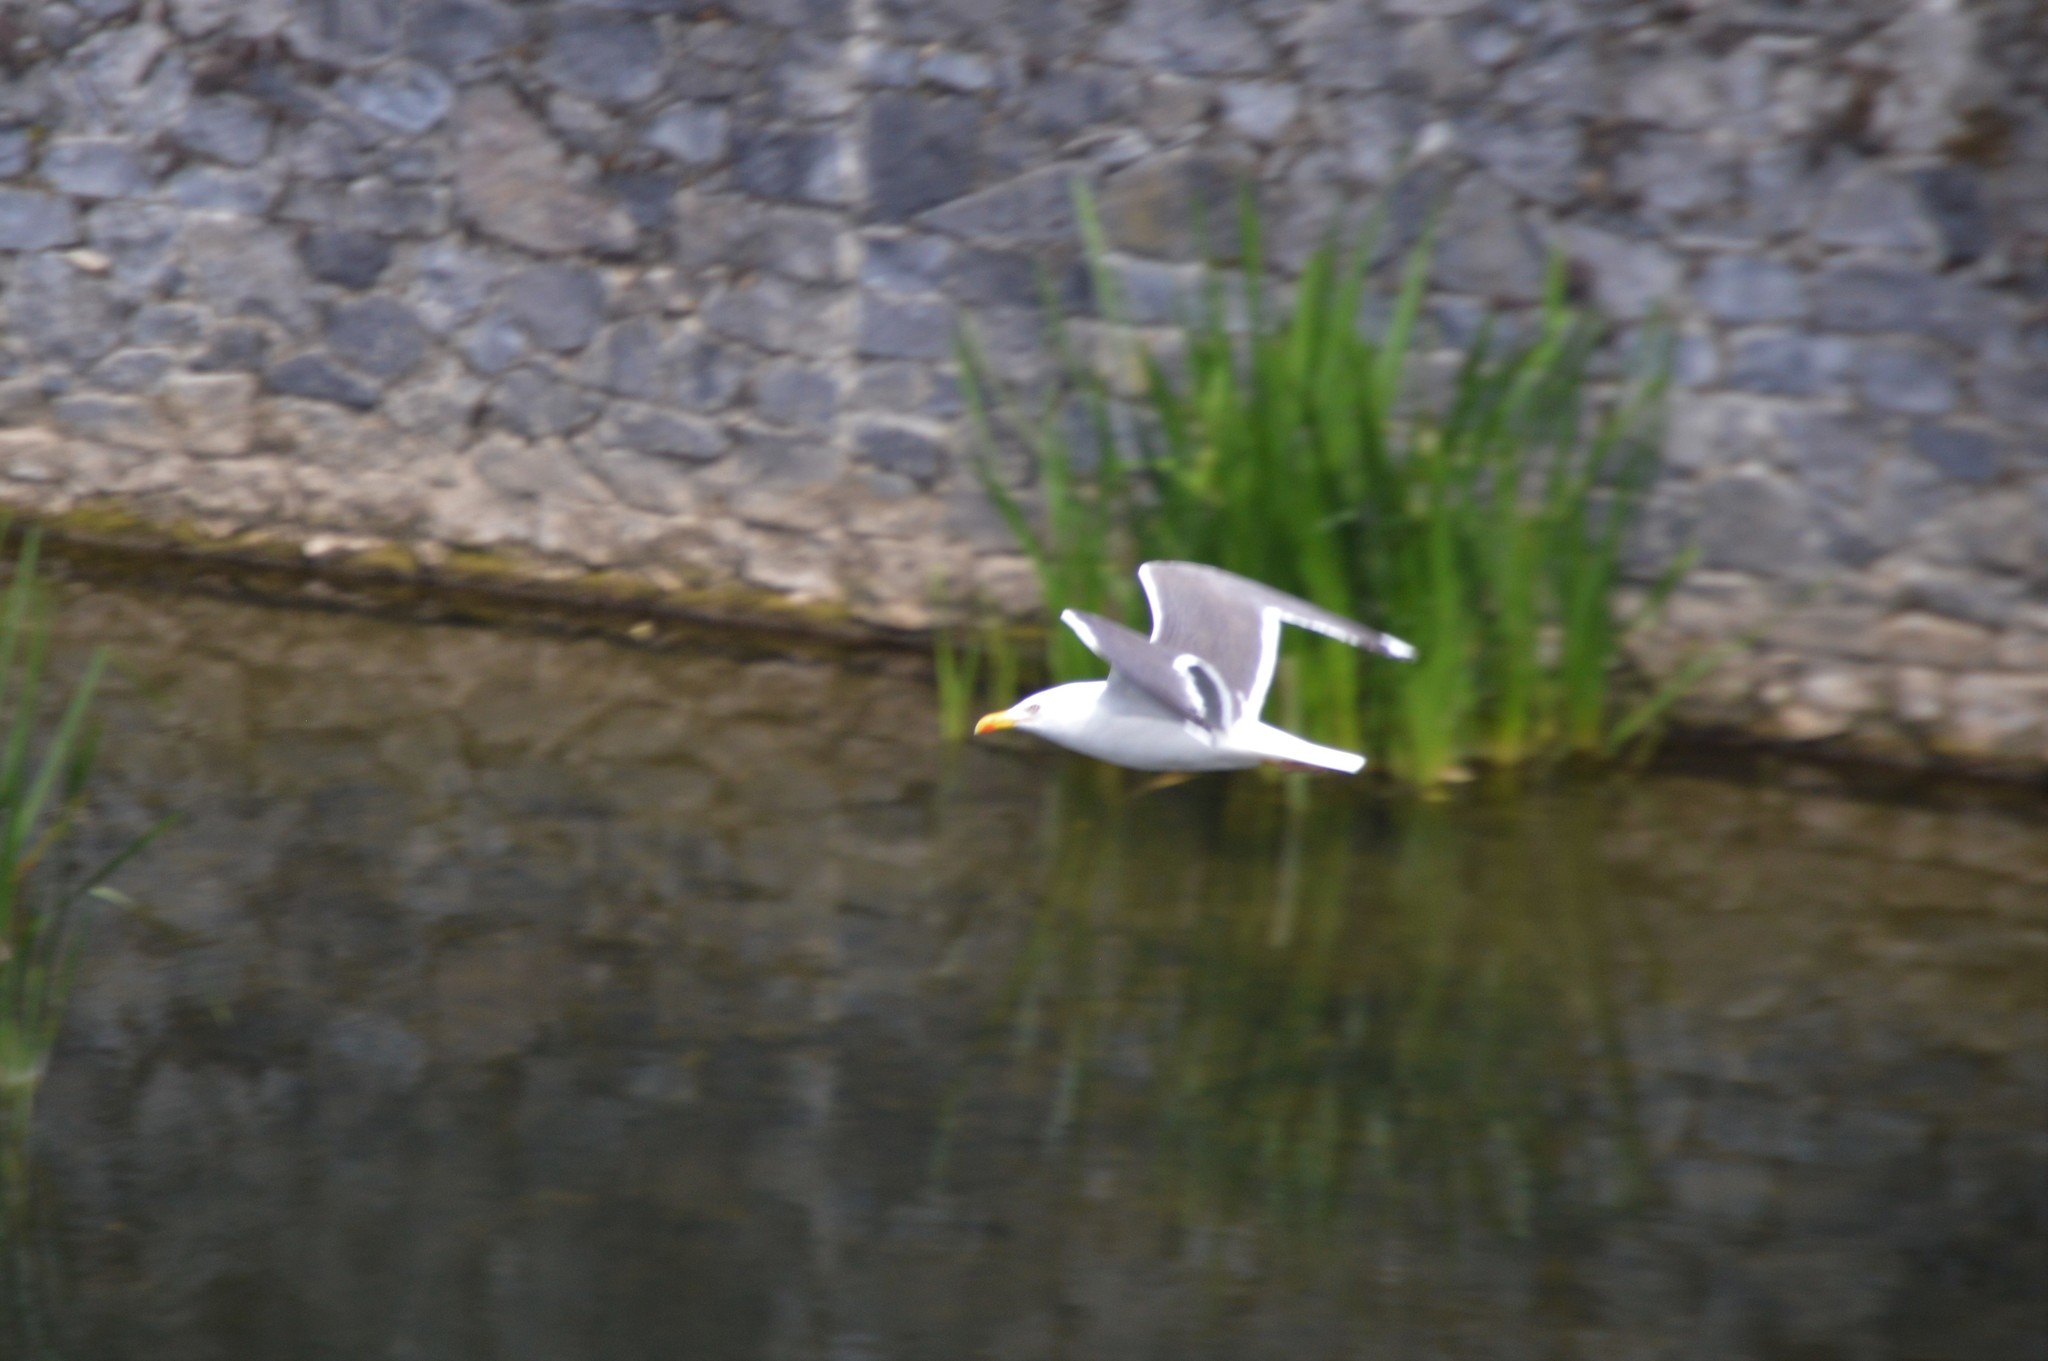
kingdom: Animalia
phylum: Chordata
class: Aves
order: Charadriiformes
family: Laridae
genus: Larus
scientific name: Larus fuscus
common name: Lesser black-backed gull
